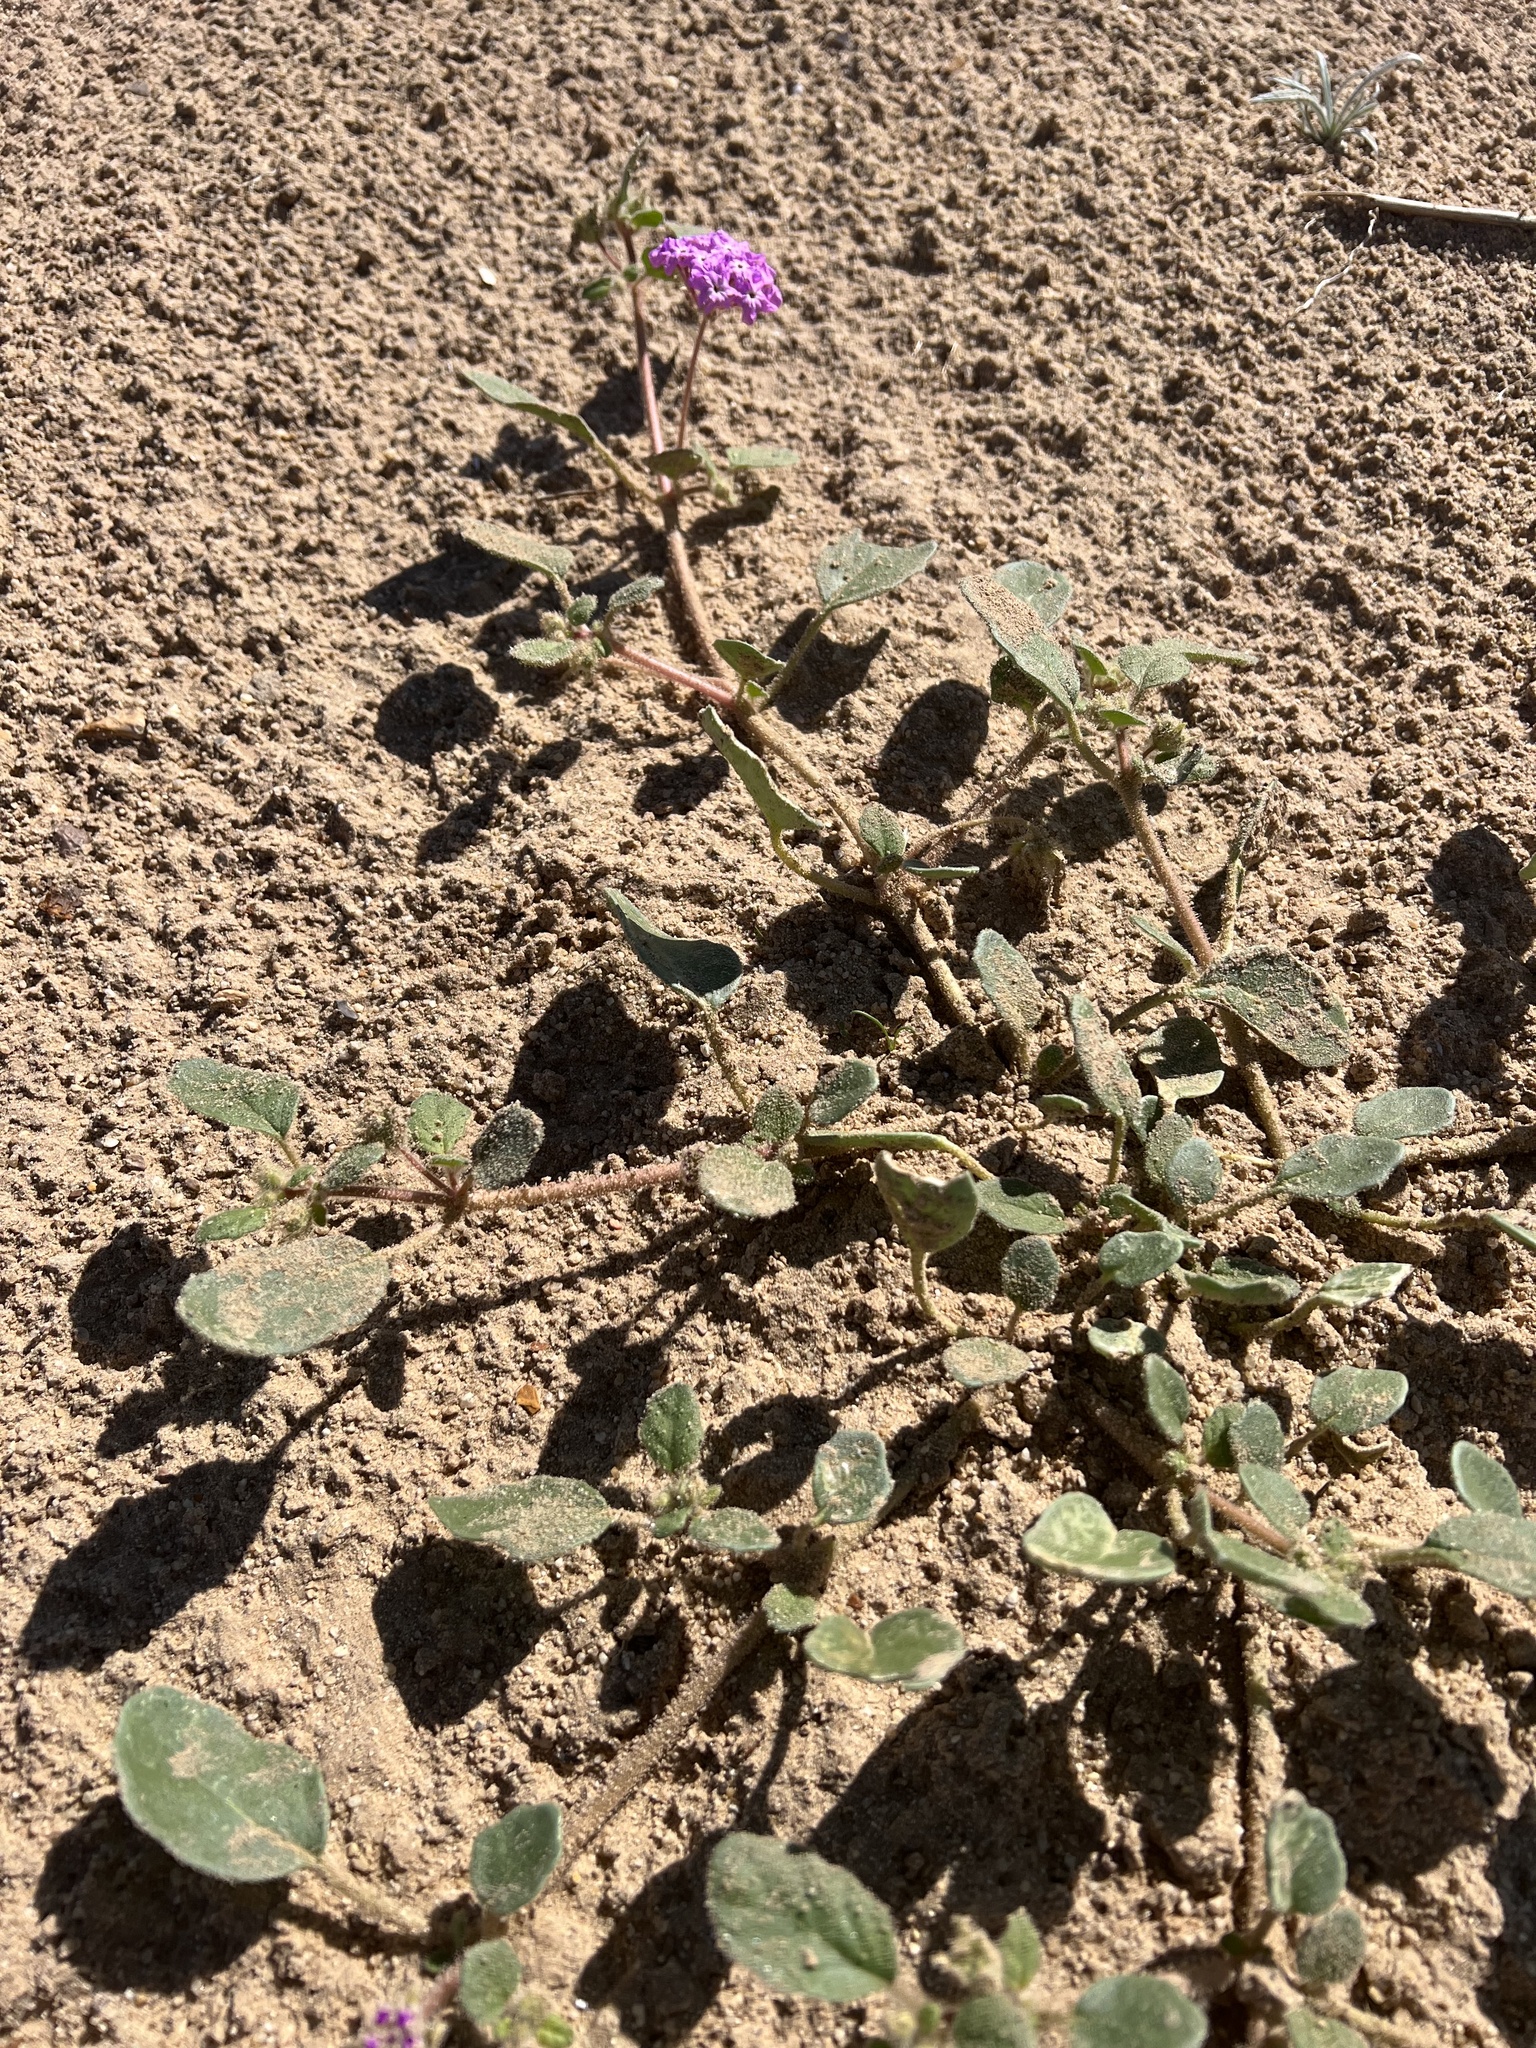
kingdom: Plantae
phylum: Tracheophyta
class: Magnoliopsida
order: Caryophyllales
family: Nyctaginaceae
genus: Abronia
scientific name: Abronia villosa
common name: Desert sand-verbena
